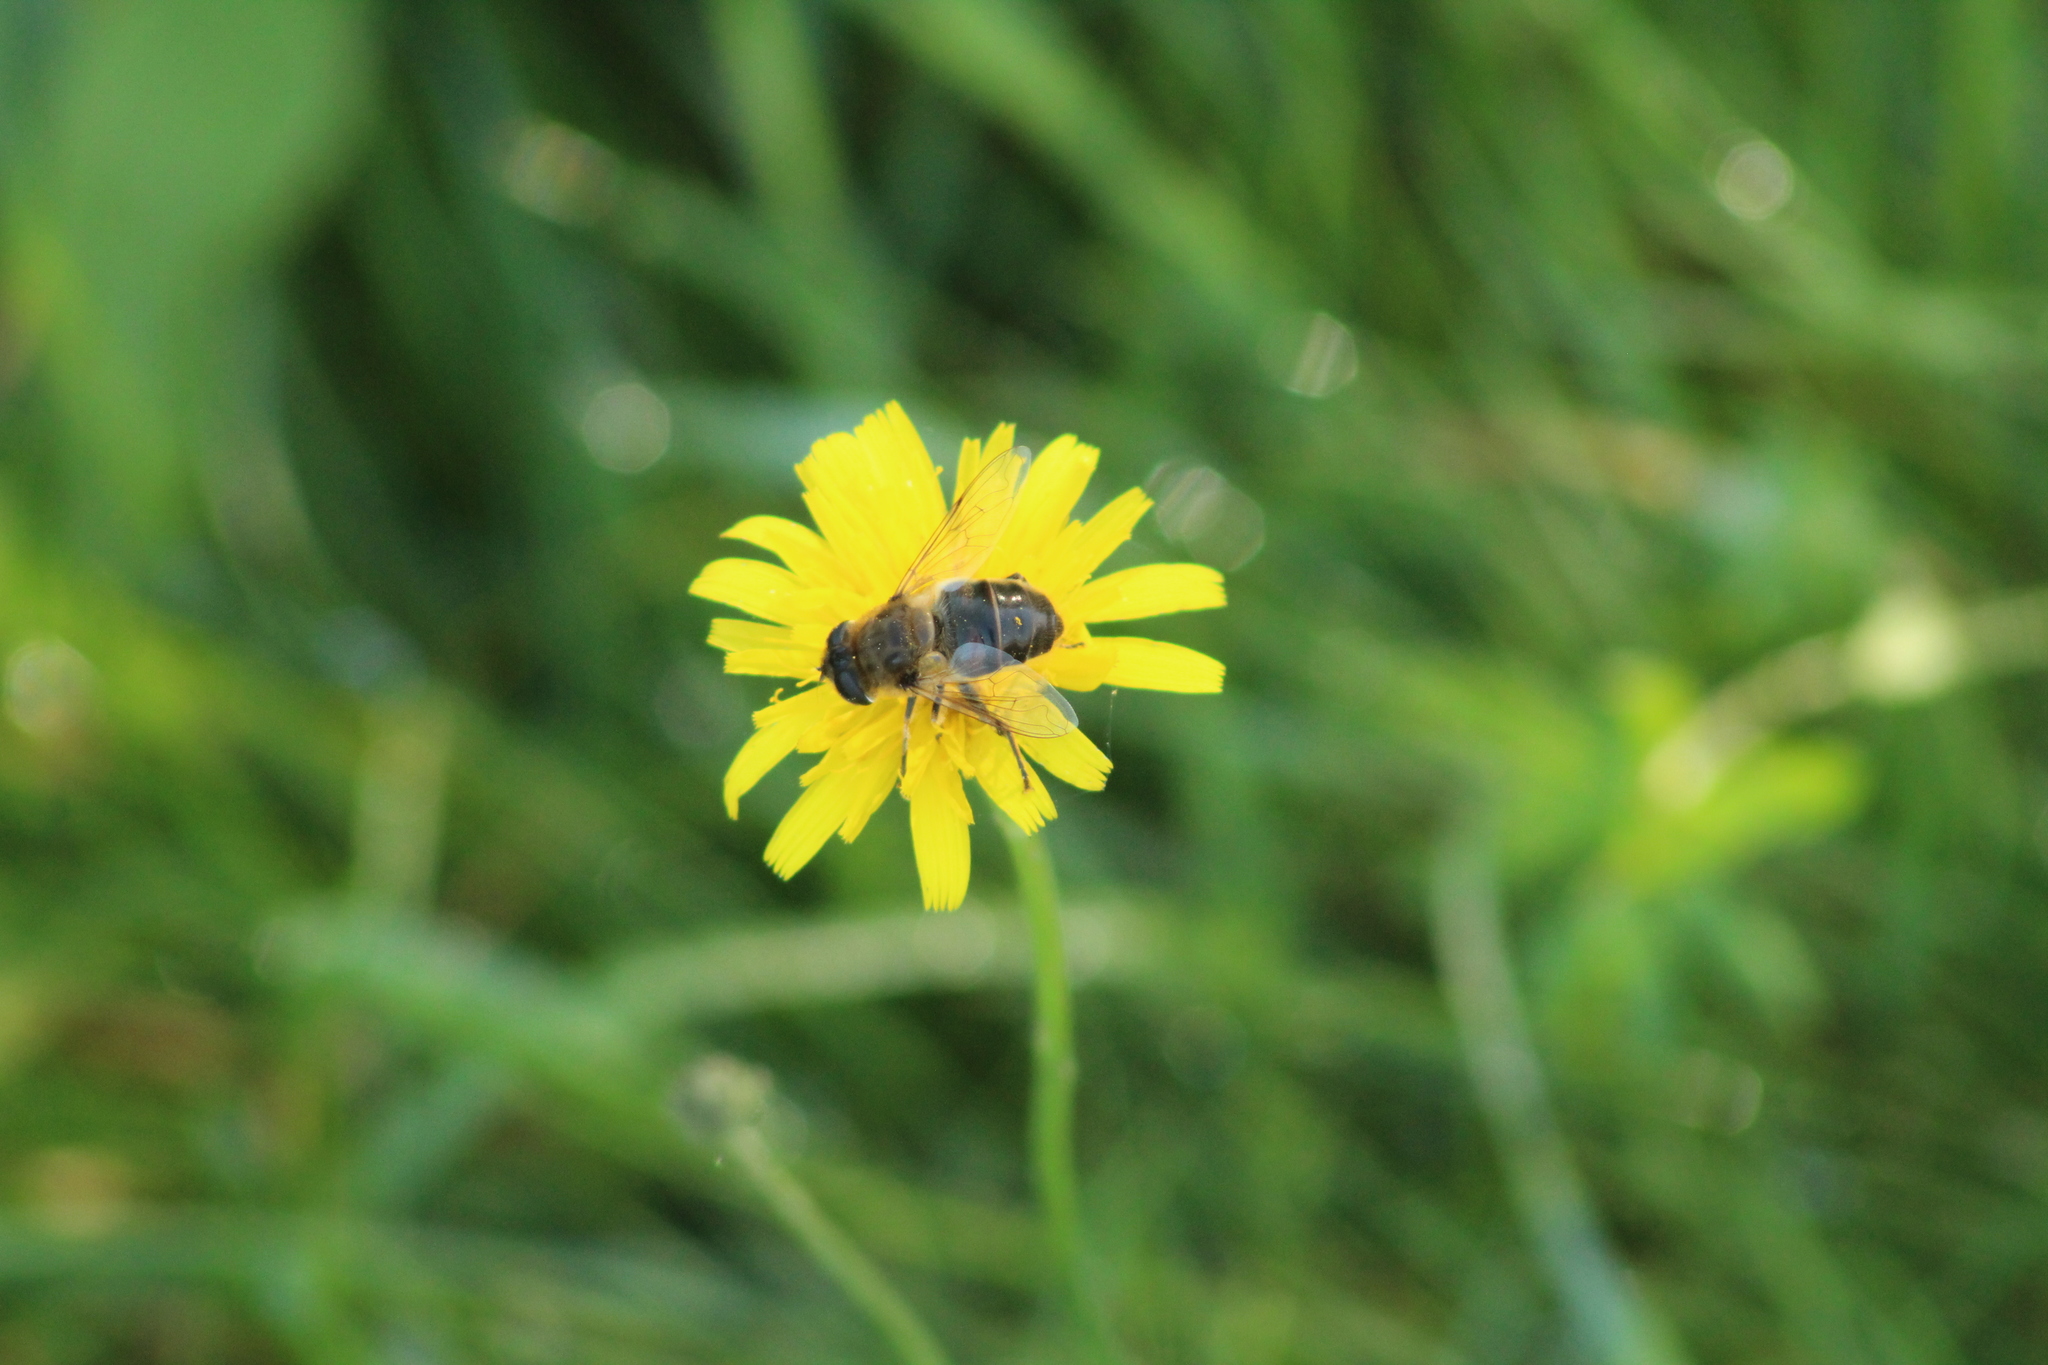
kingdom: Animalia
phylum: Arthropoda
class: Insecta
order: Diptera
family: Syrphidae
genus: Eristalis
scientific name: Eristalis tenax
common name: Drone fly
